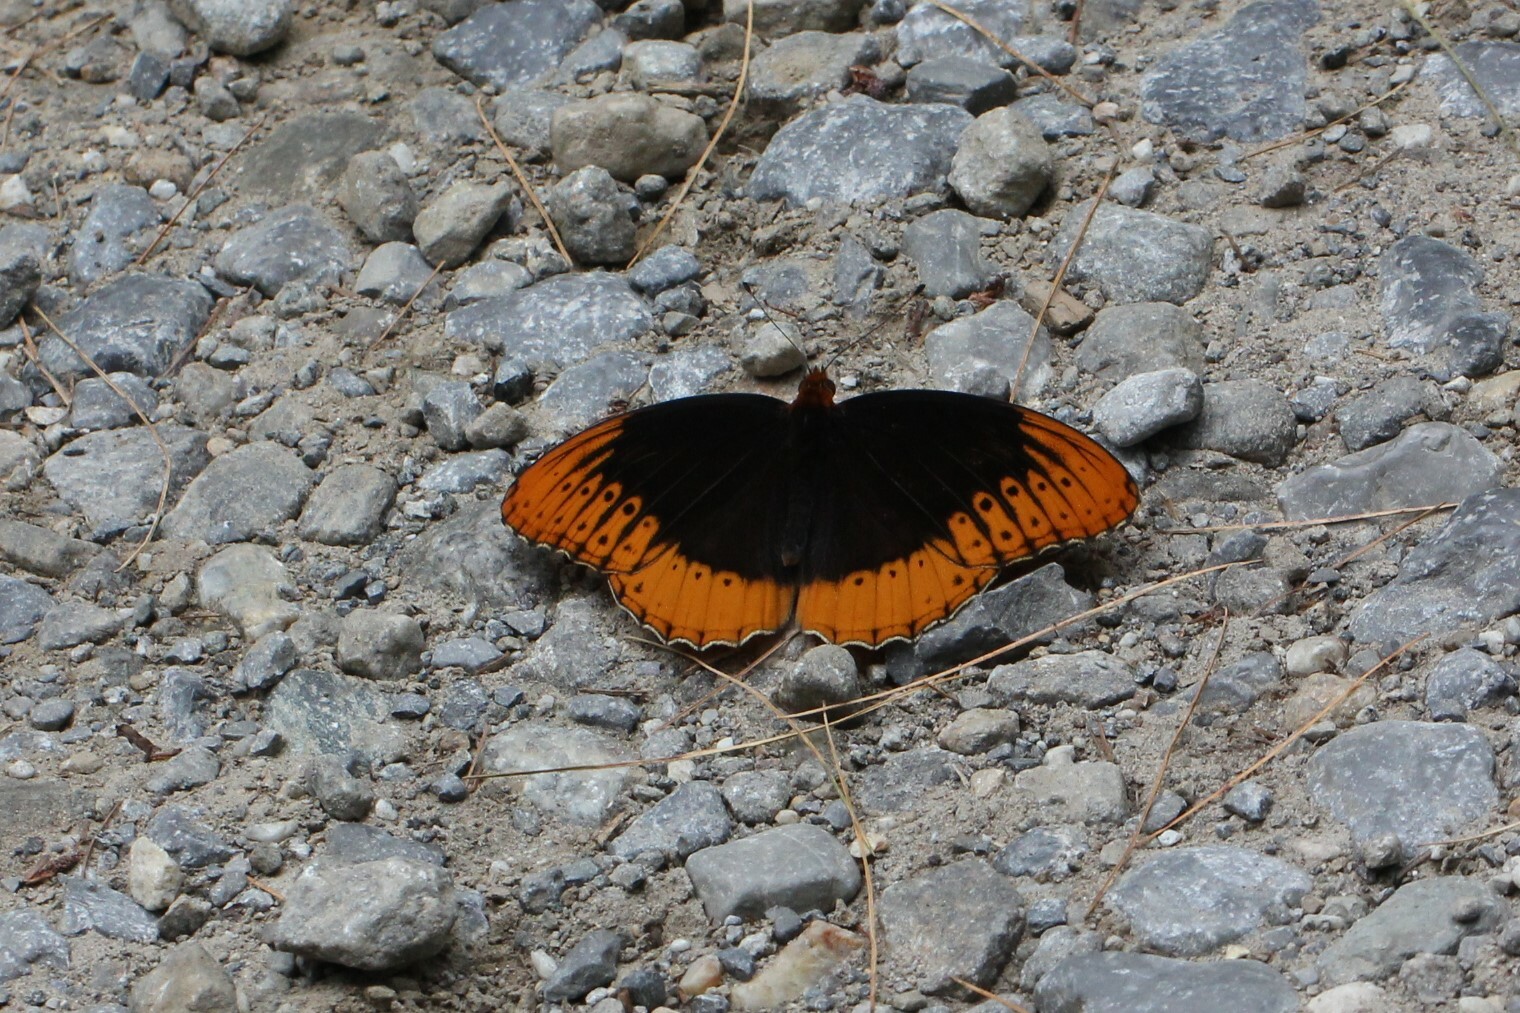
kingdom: Animalia
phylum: Arthropoda
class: Insecta
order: Lepidoptera
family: Nymphalidae
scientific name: Nymphalidae
